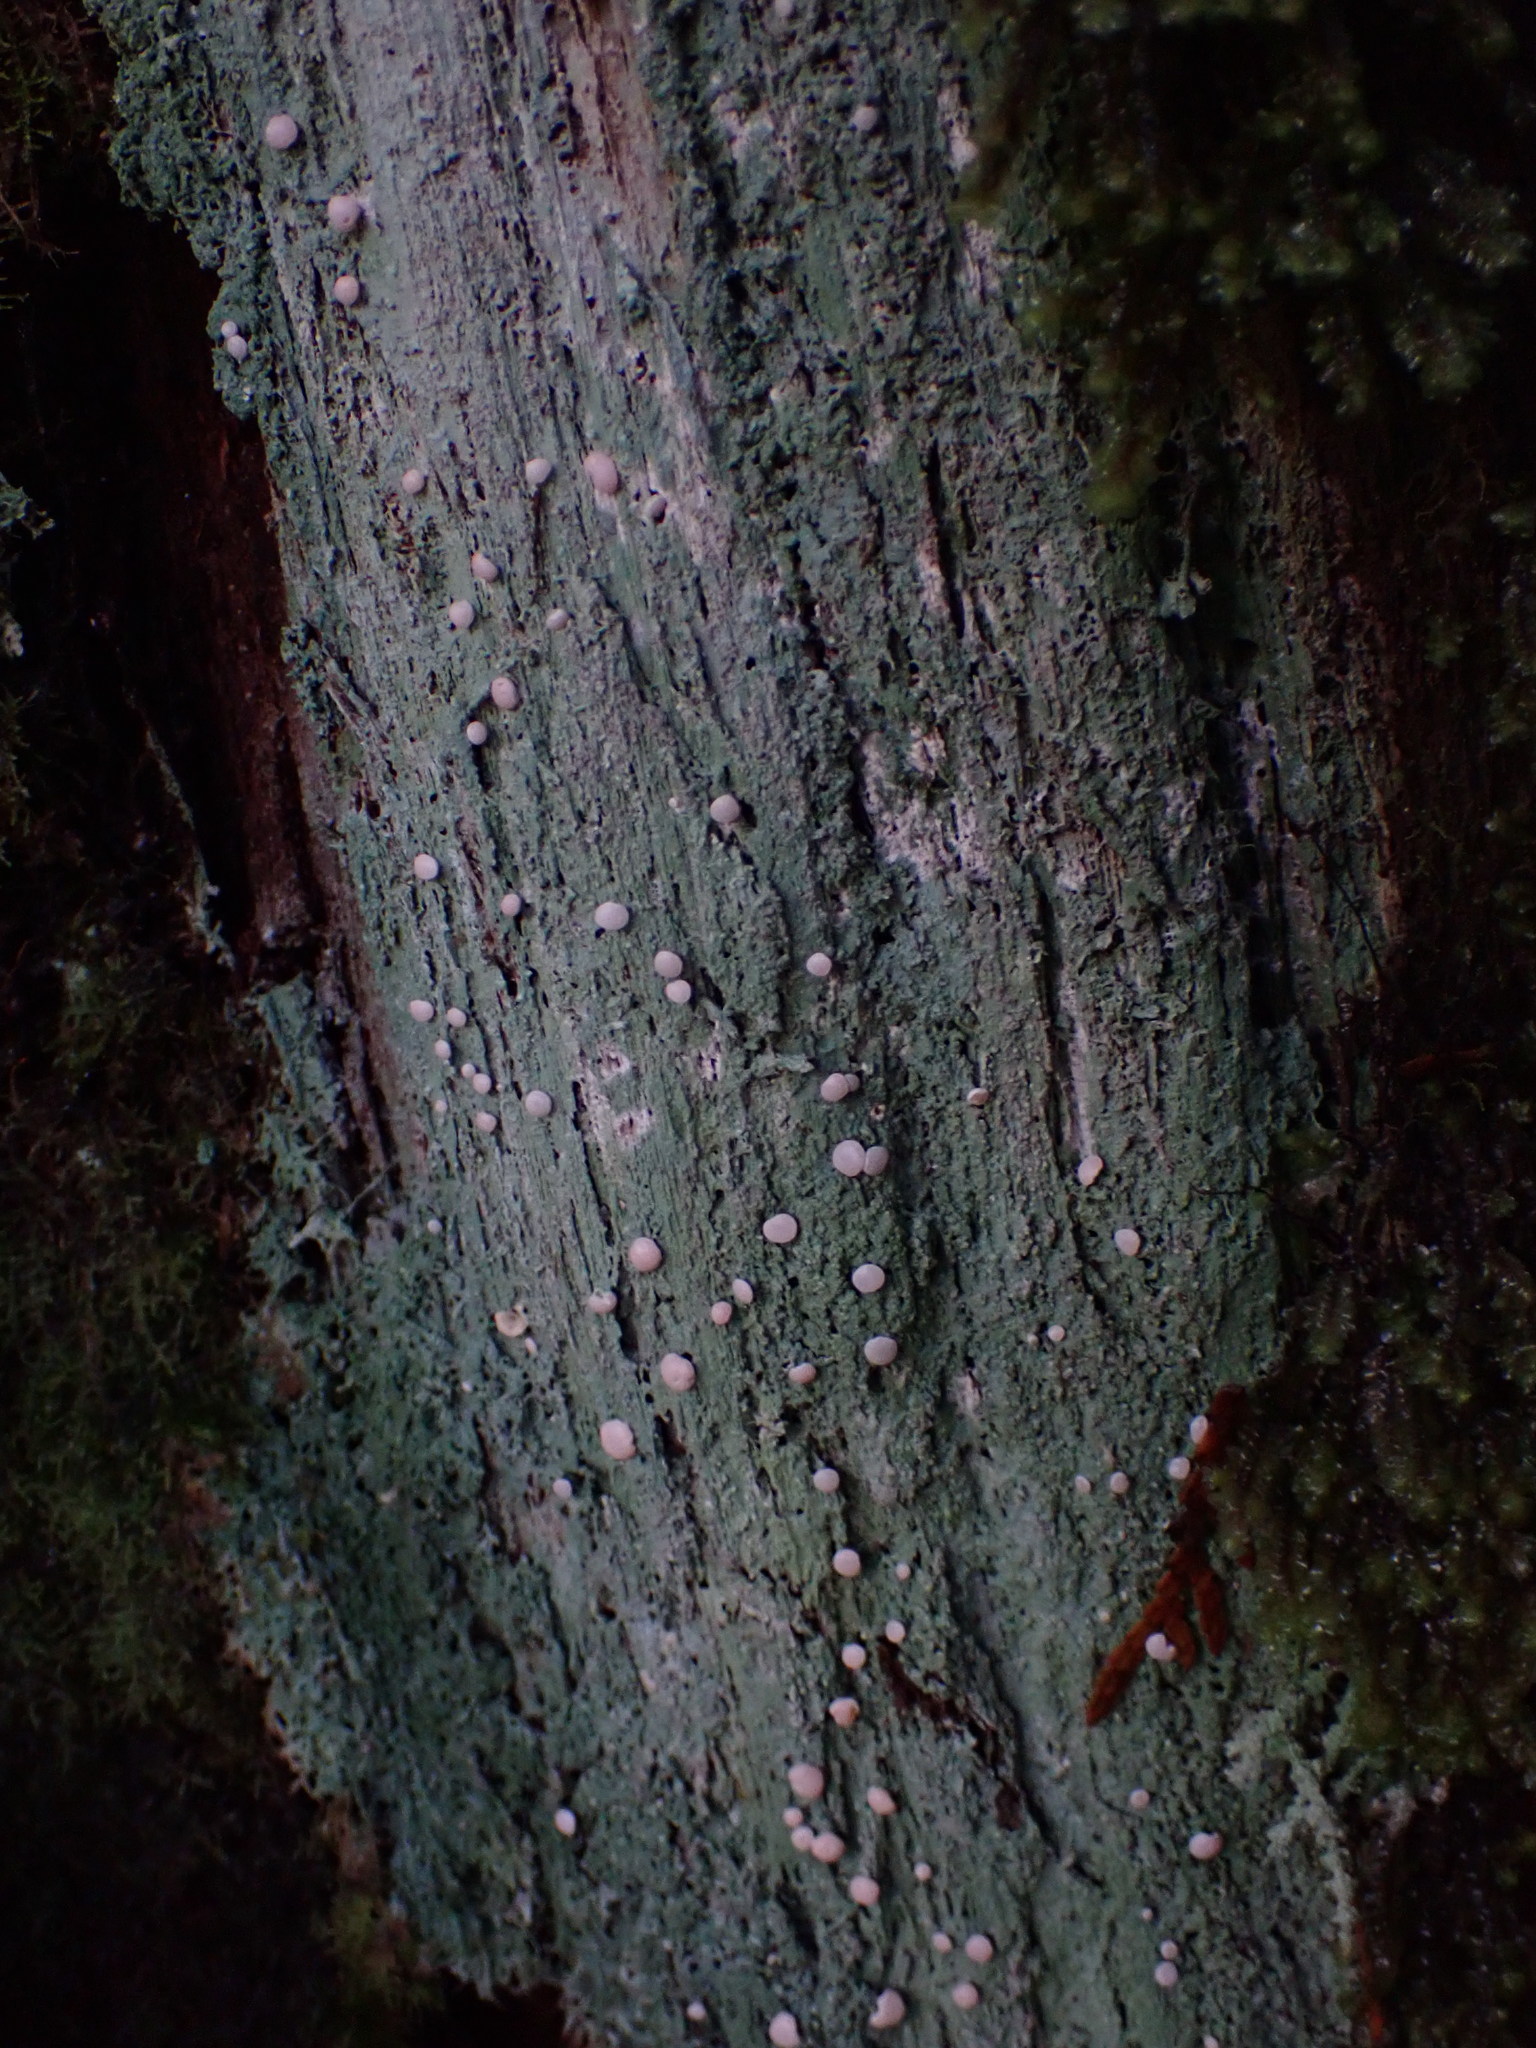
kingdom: Fungi
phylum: Ascomycota
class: Lecanoromycetes
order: Pertusariales
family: Icmadophilaceae
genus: Icmadophila
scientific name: Icmadophila ericetorum
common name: Candy lichen
